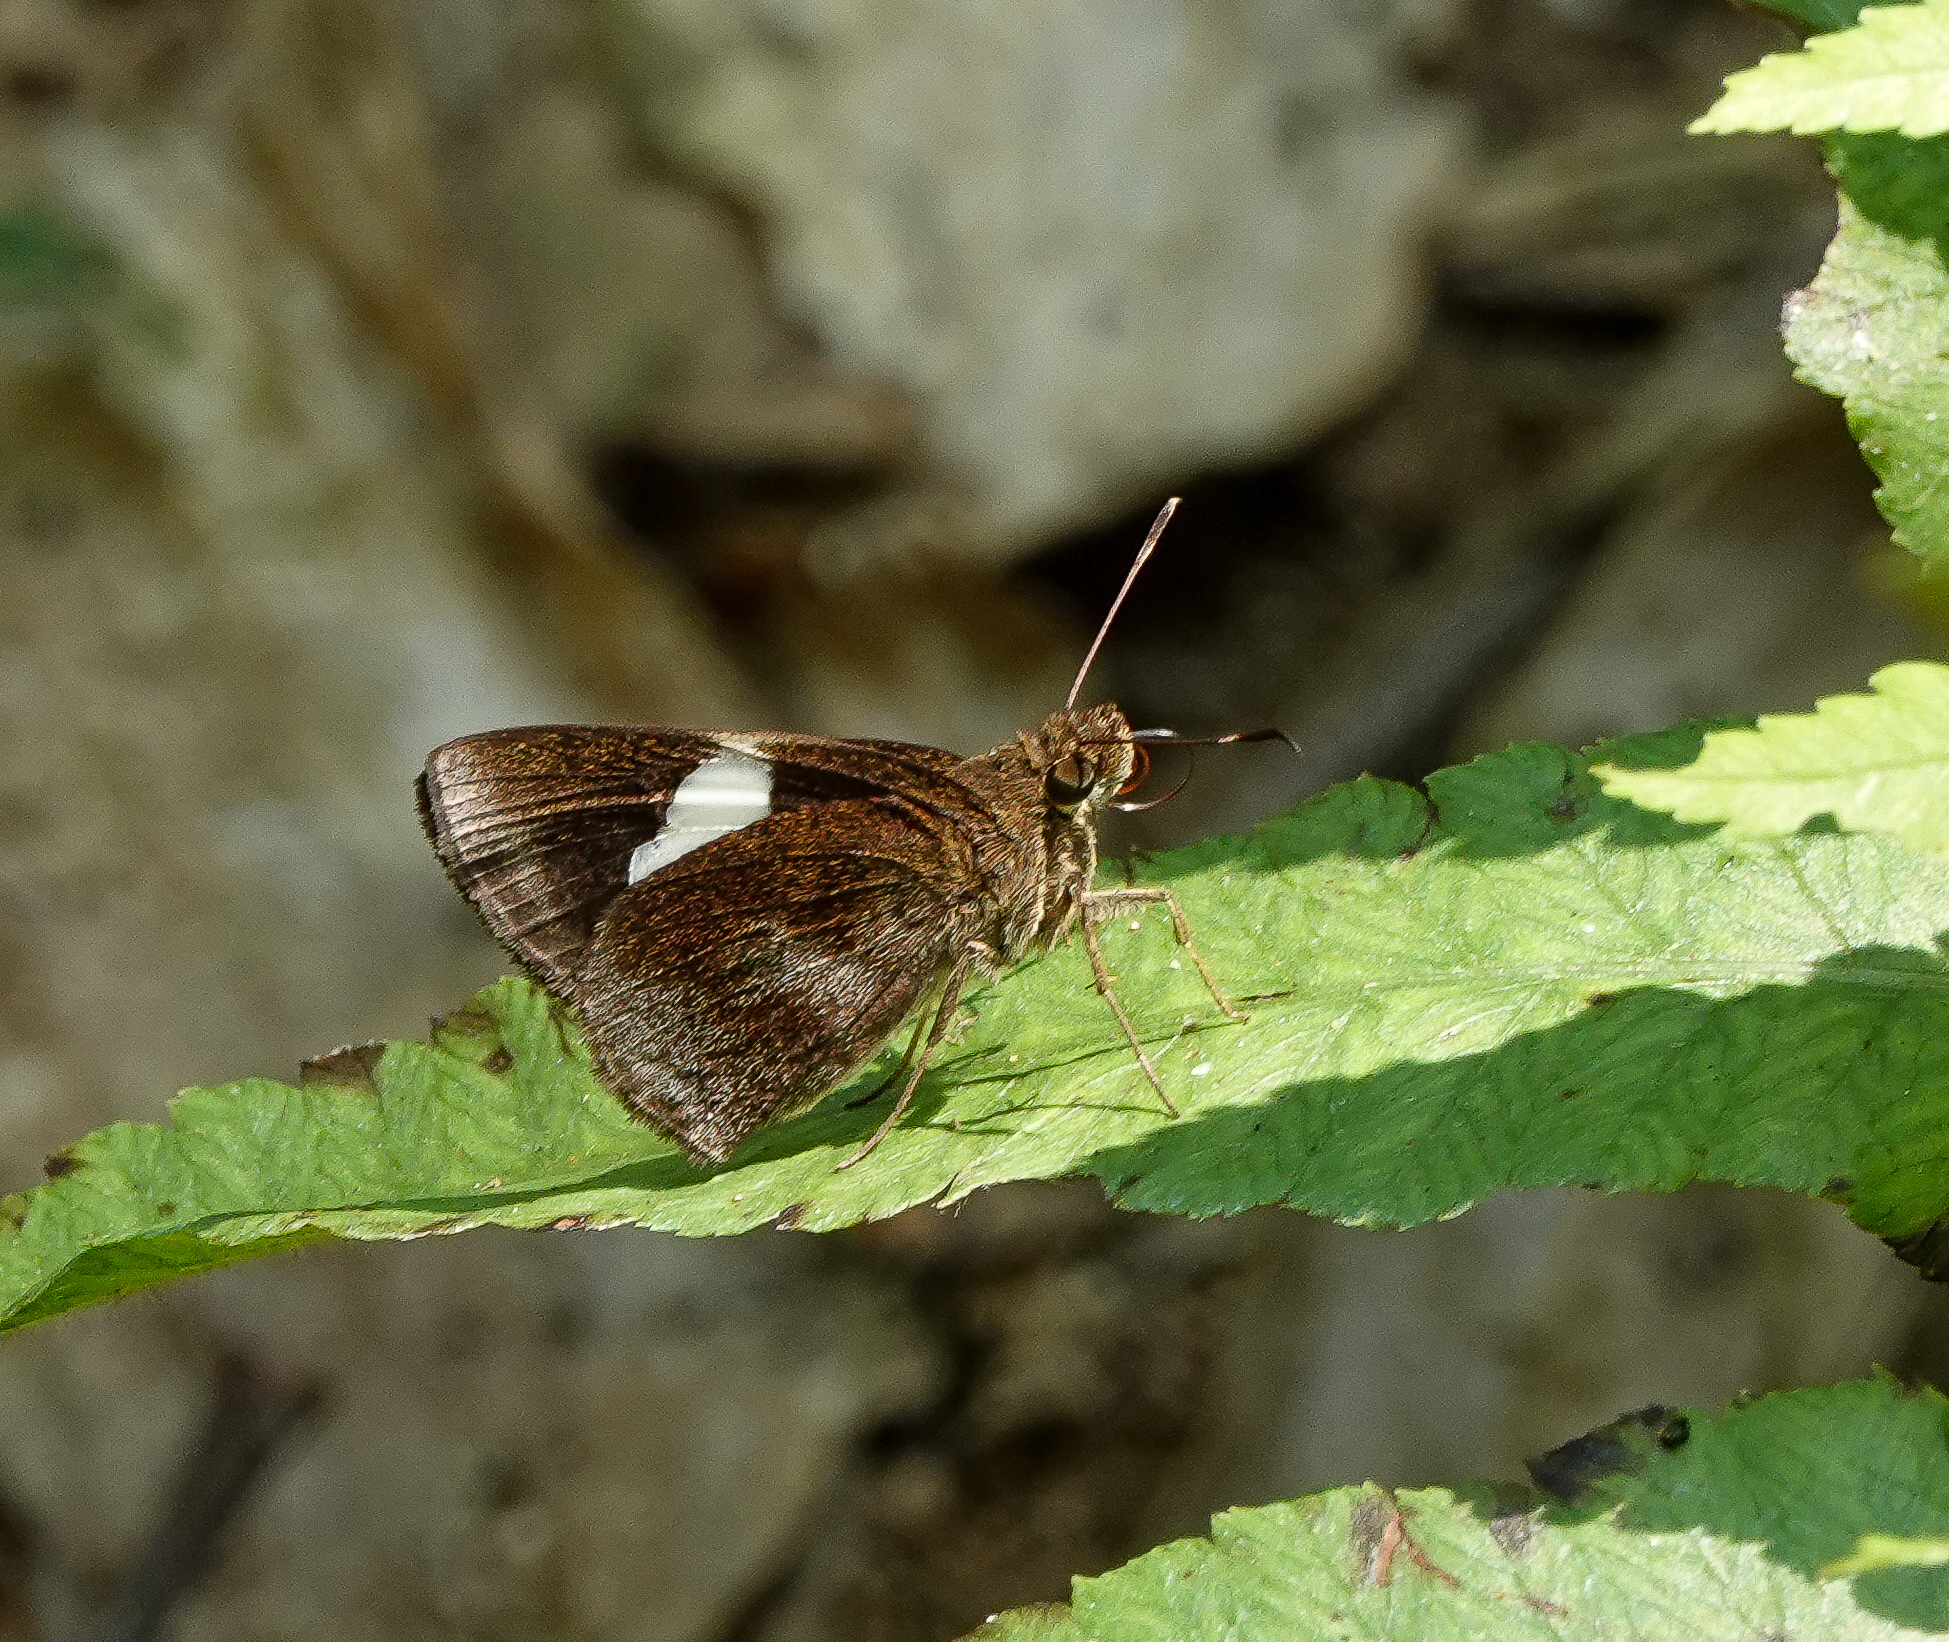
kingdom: Animalia
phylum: Arthropoda
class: Insecta
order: Lepidoptera
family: Hesperiidae
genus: Notocrypta
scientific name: Notocrypta paralysos
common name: Common banded demon
